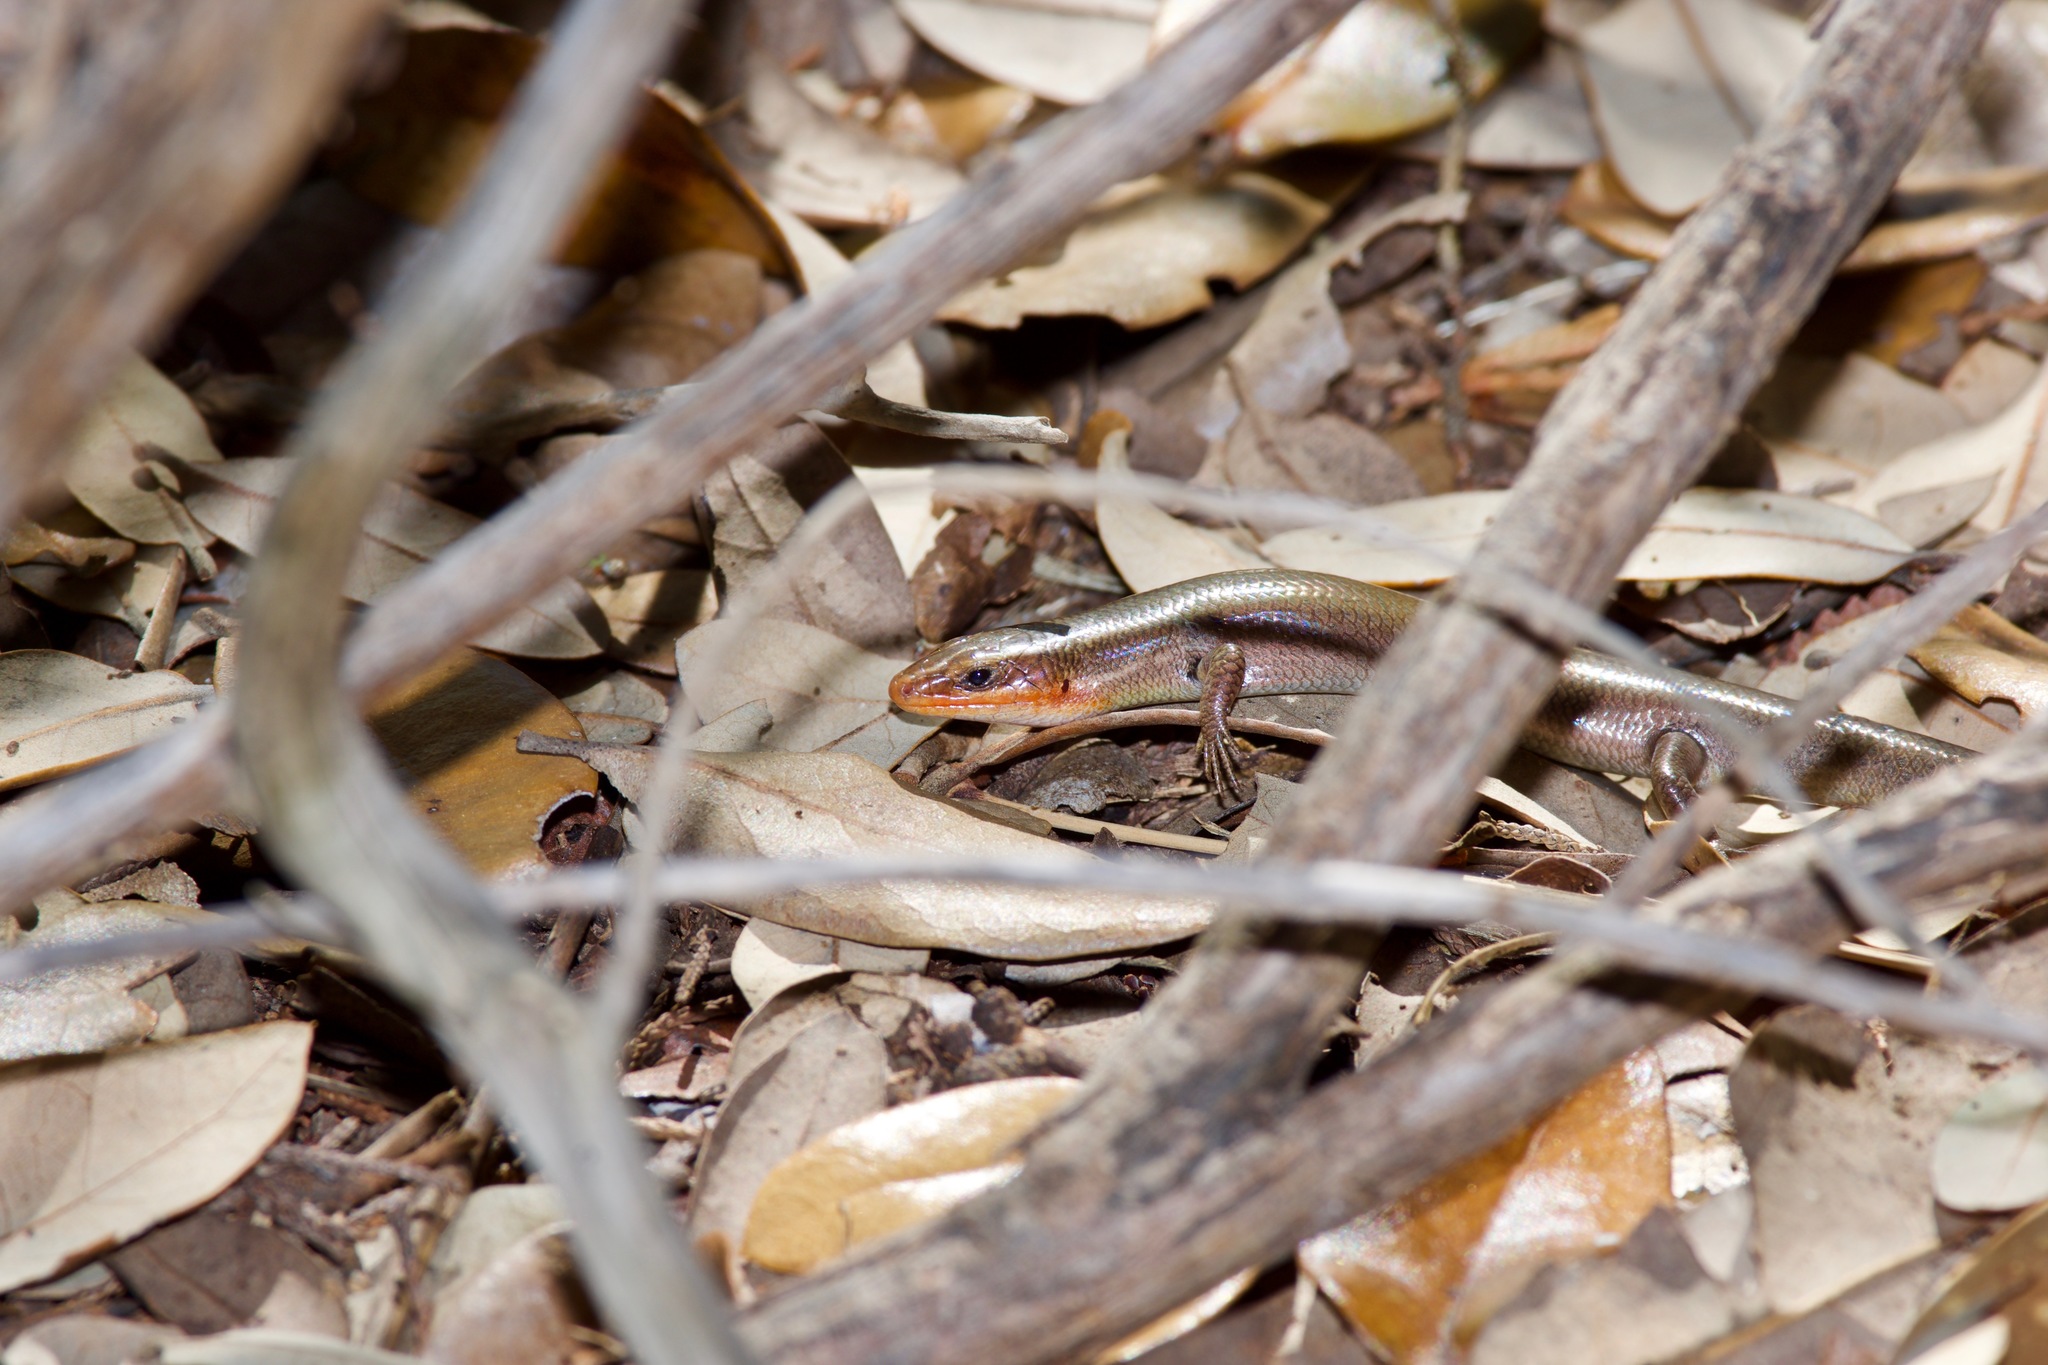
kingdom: Animalia
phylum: Chordata
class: Squamata
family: Scincidae
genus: Plestiodon
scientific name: Plestiodon tetragrammus
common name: Four-lined skink
